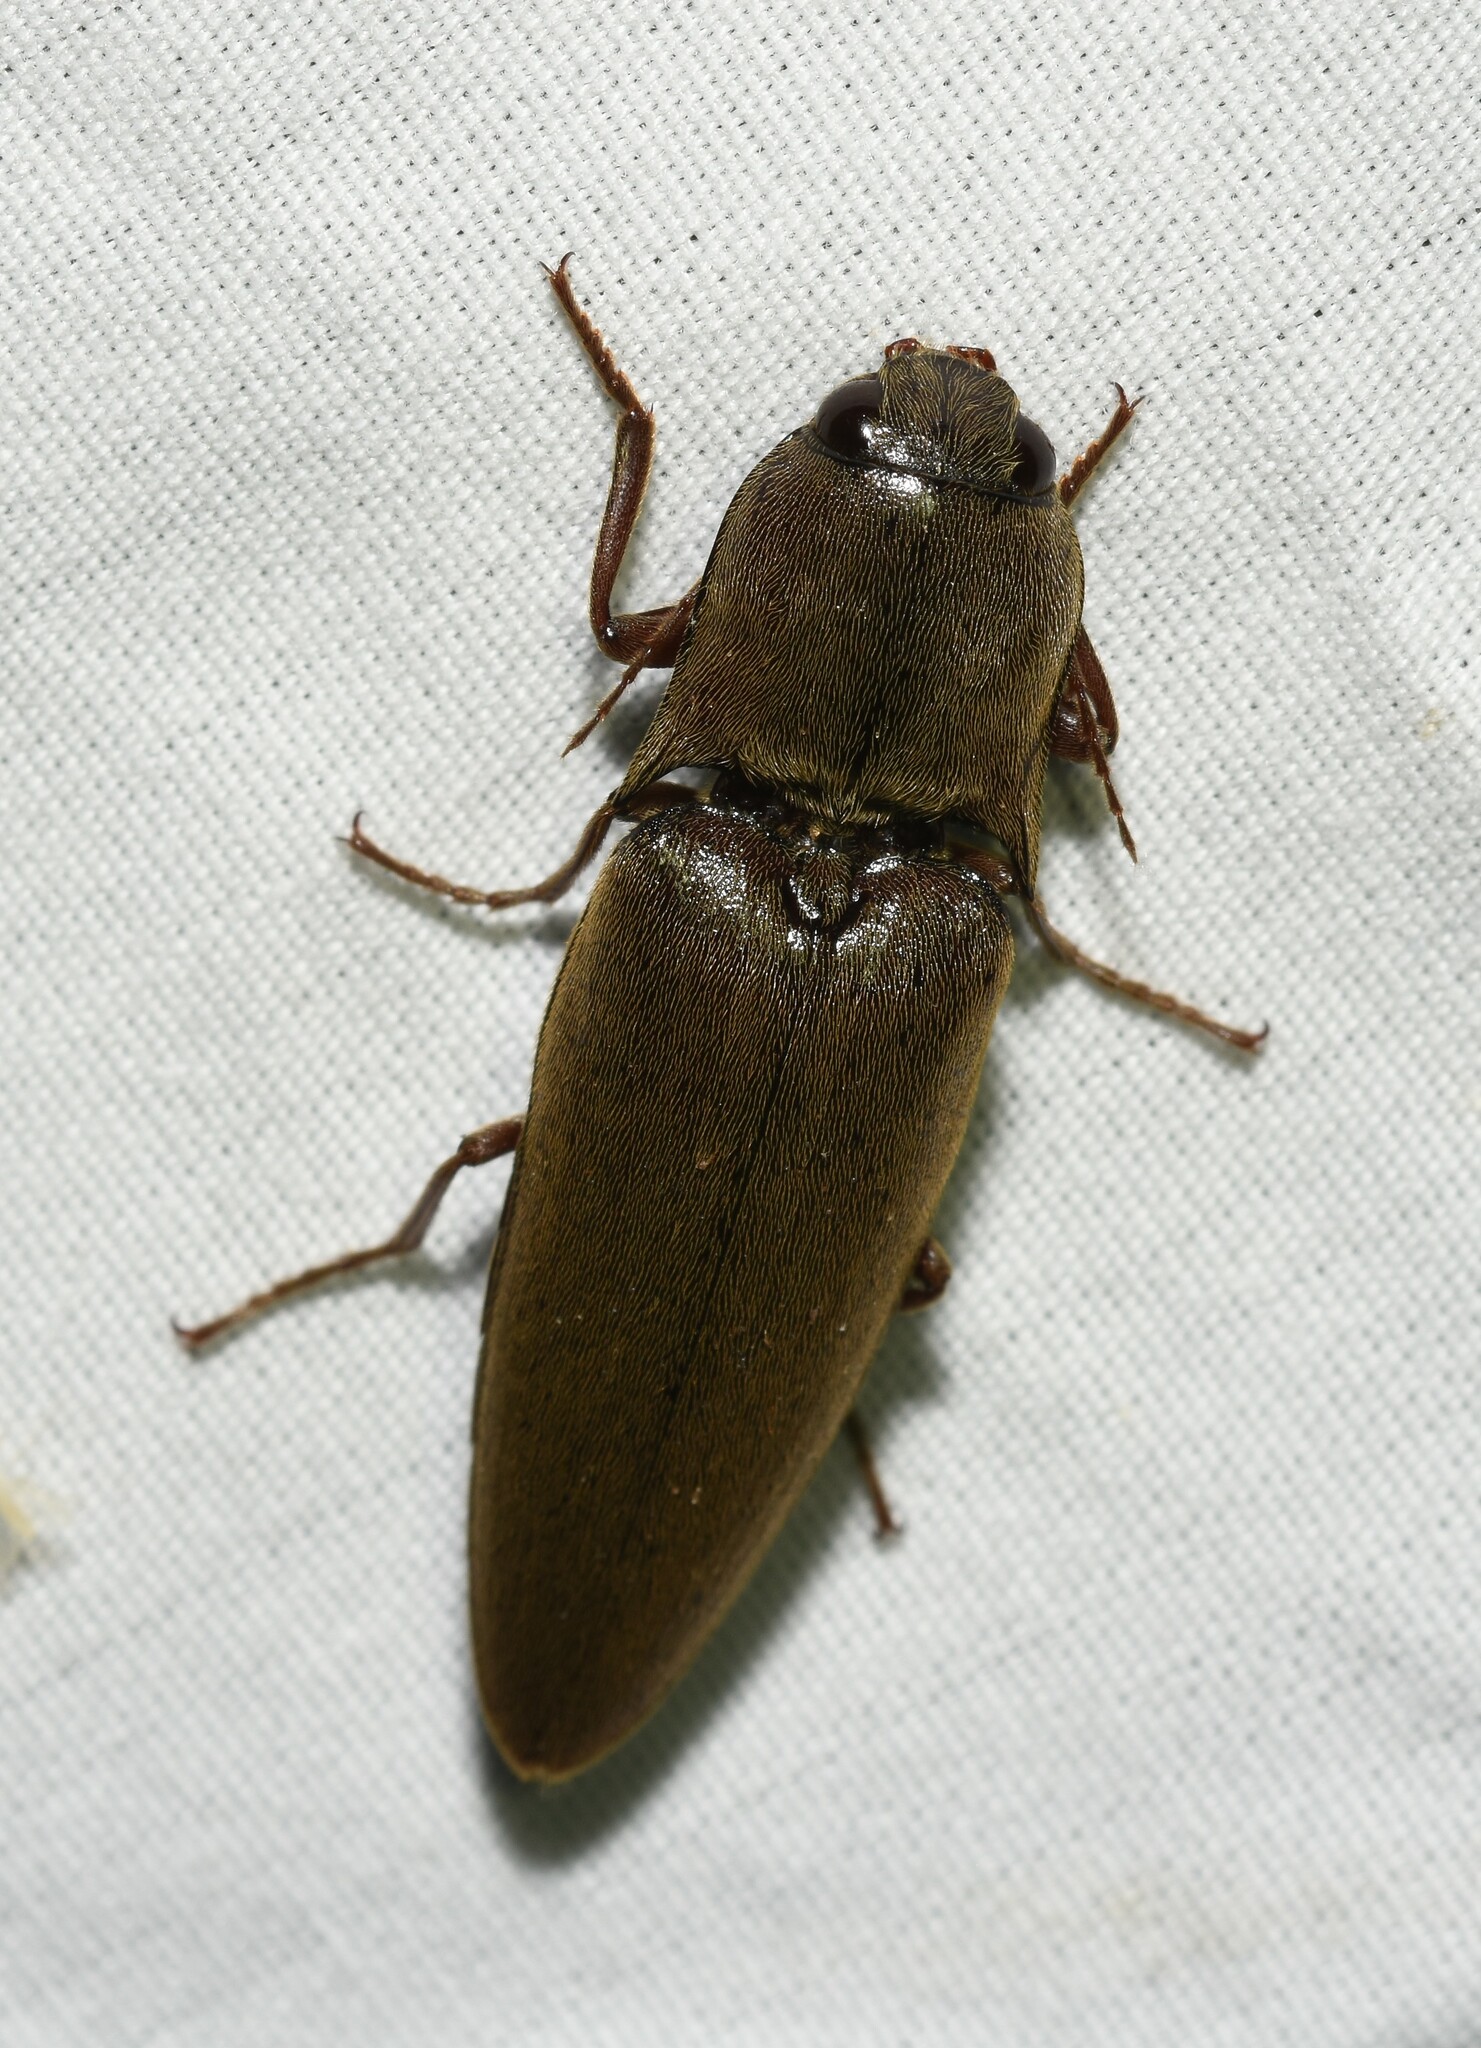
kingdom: Animalia
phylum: Arthropoda
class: Insecta
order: Coleoptera
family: Elateridae
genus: Orthostethus
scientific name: Orthostethus infuscatus
